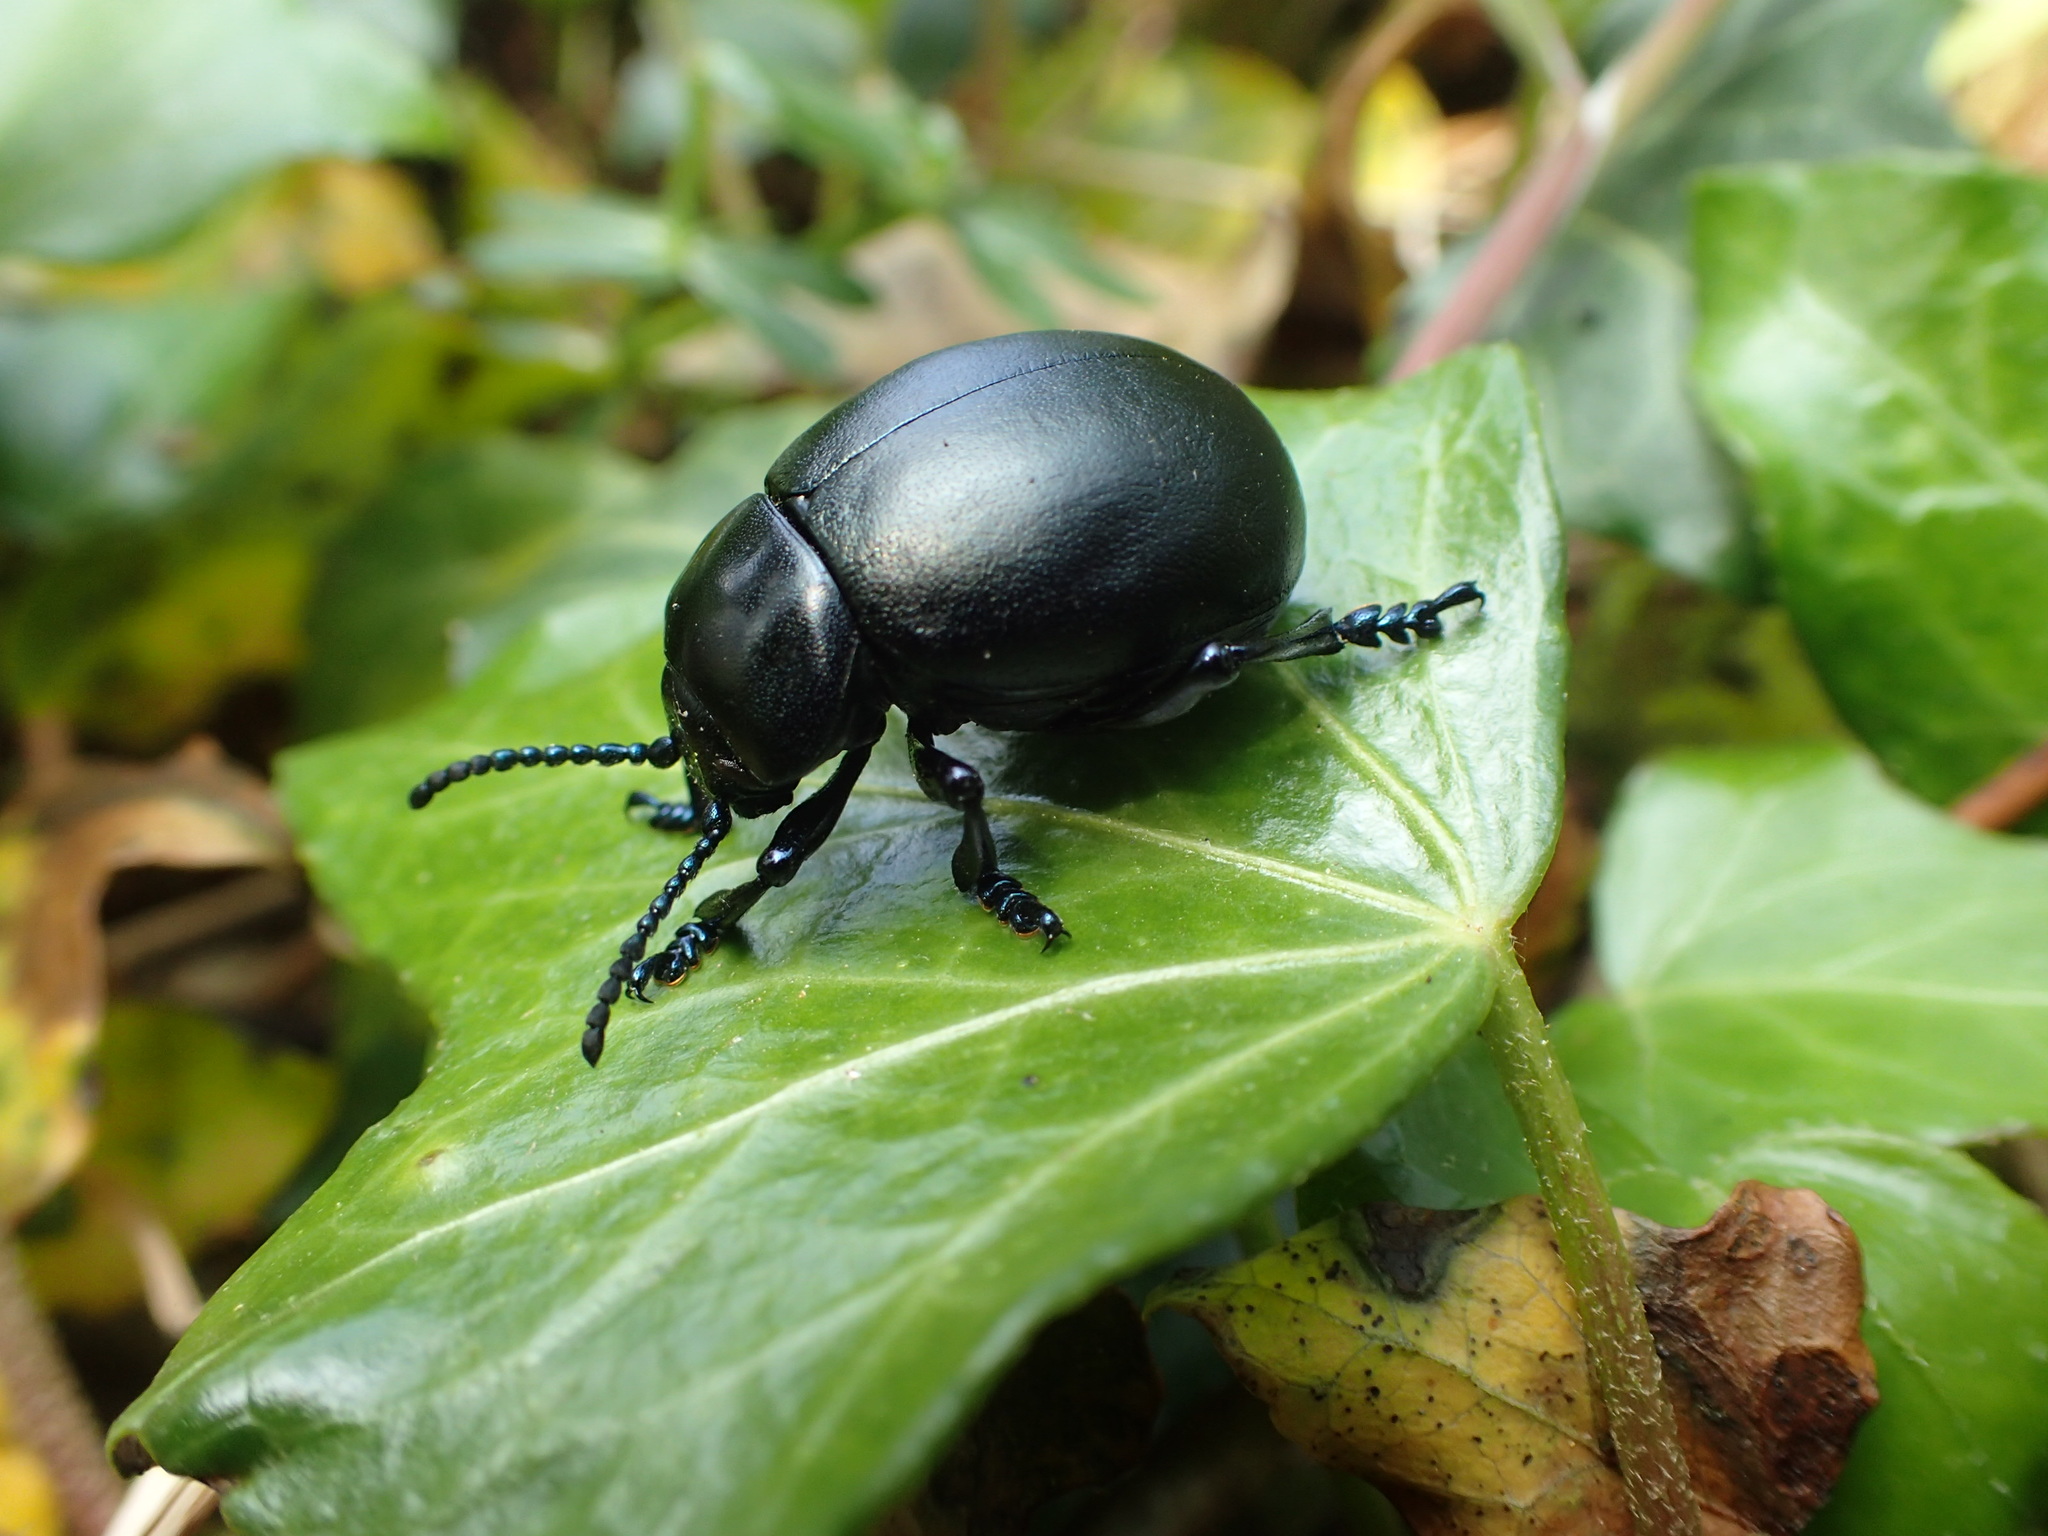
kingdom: Animalia
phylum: Arthropoda
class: Insecta
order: Coleoptera
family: Chrysomelidae
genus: Timarcha
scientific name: Timarcha tenebricosa
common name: Bloody-nosed beetle
